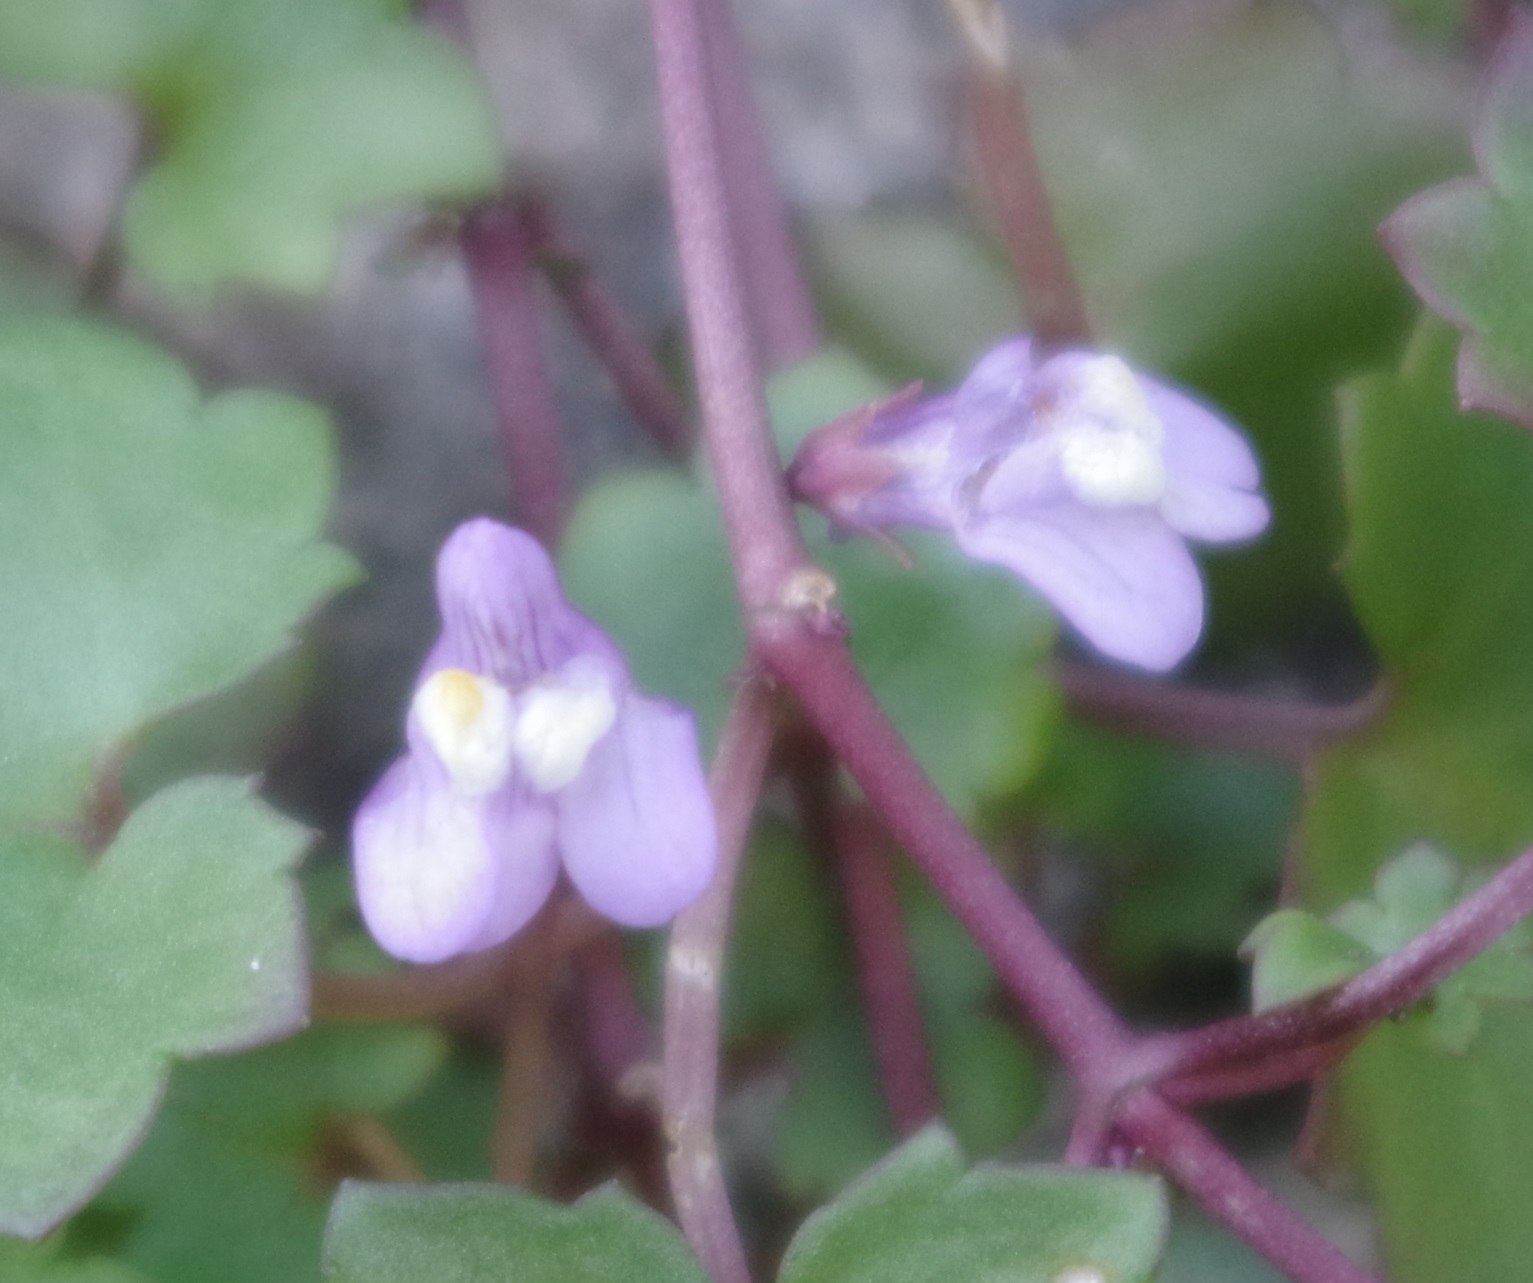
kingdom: Plantae
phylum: Tracheophyta
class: Magnoliopsida
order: Lamiales
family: Plantaginaceae
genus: Cymbalaria
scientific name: Cymbalaria muralis
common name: Ivy-leaved toadflax
